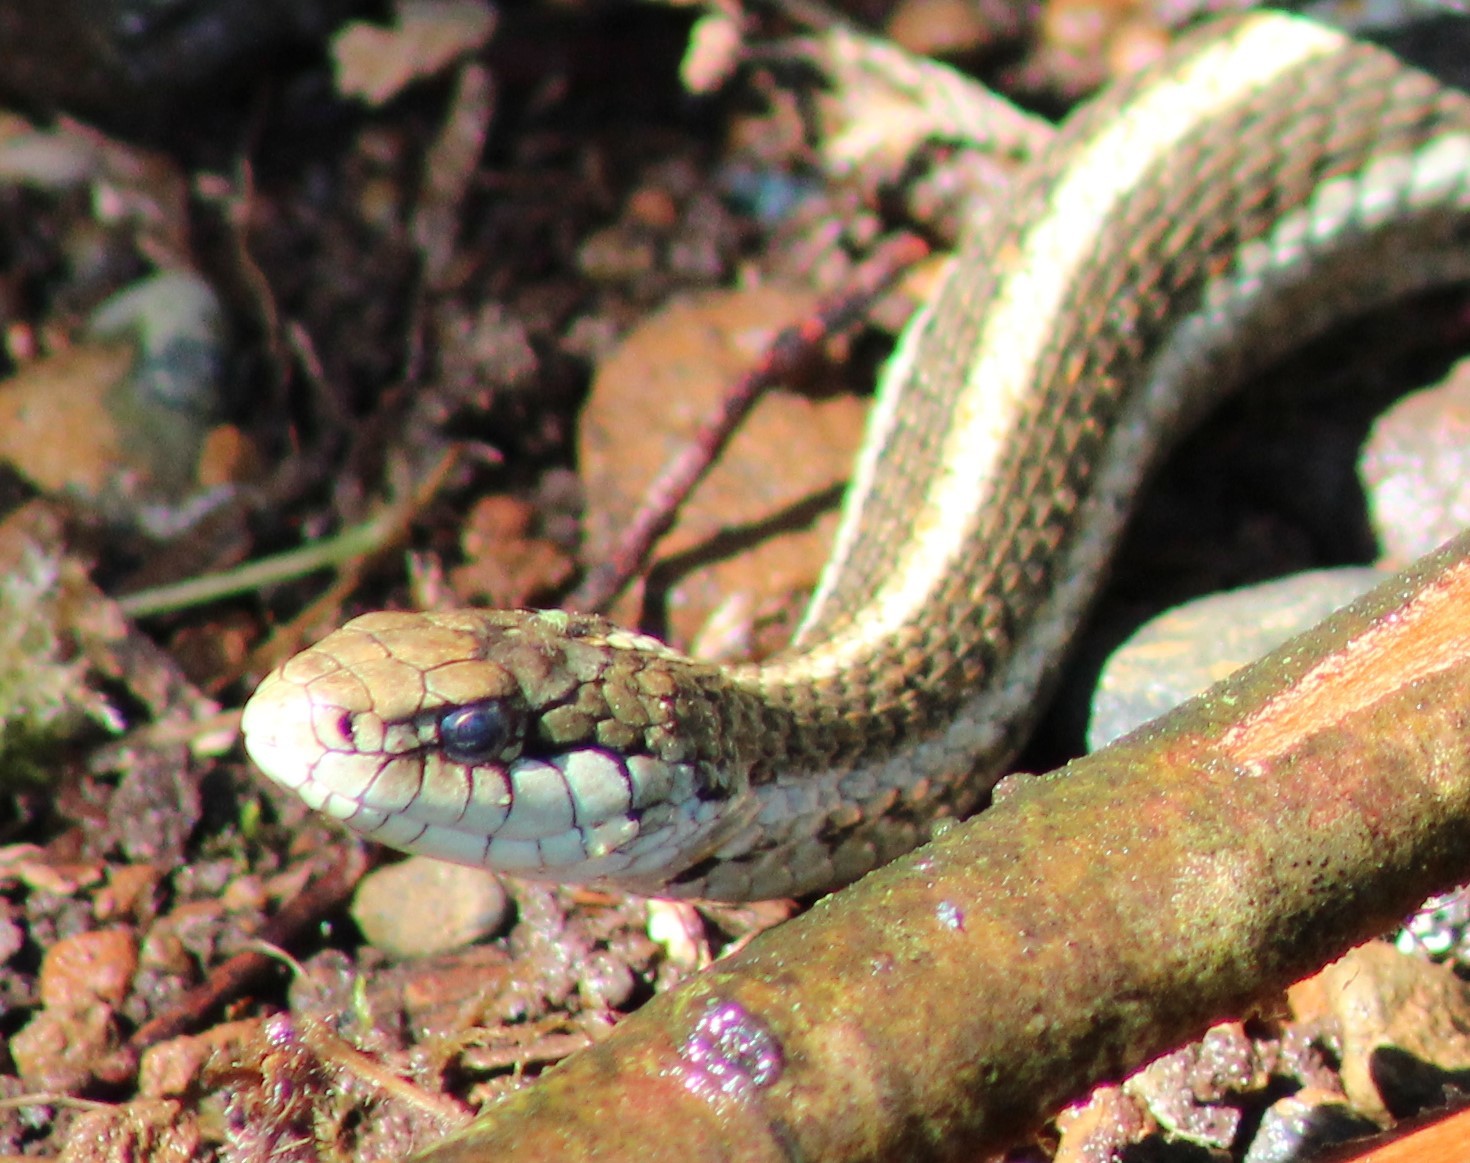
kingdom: Animalia
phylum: Chordata
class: Squamata
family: Colubridae
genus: Thamnophis
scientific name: Thamnophis ordinoides
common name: Northwestern garter snake
